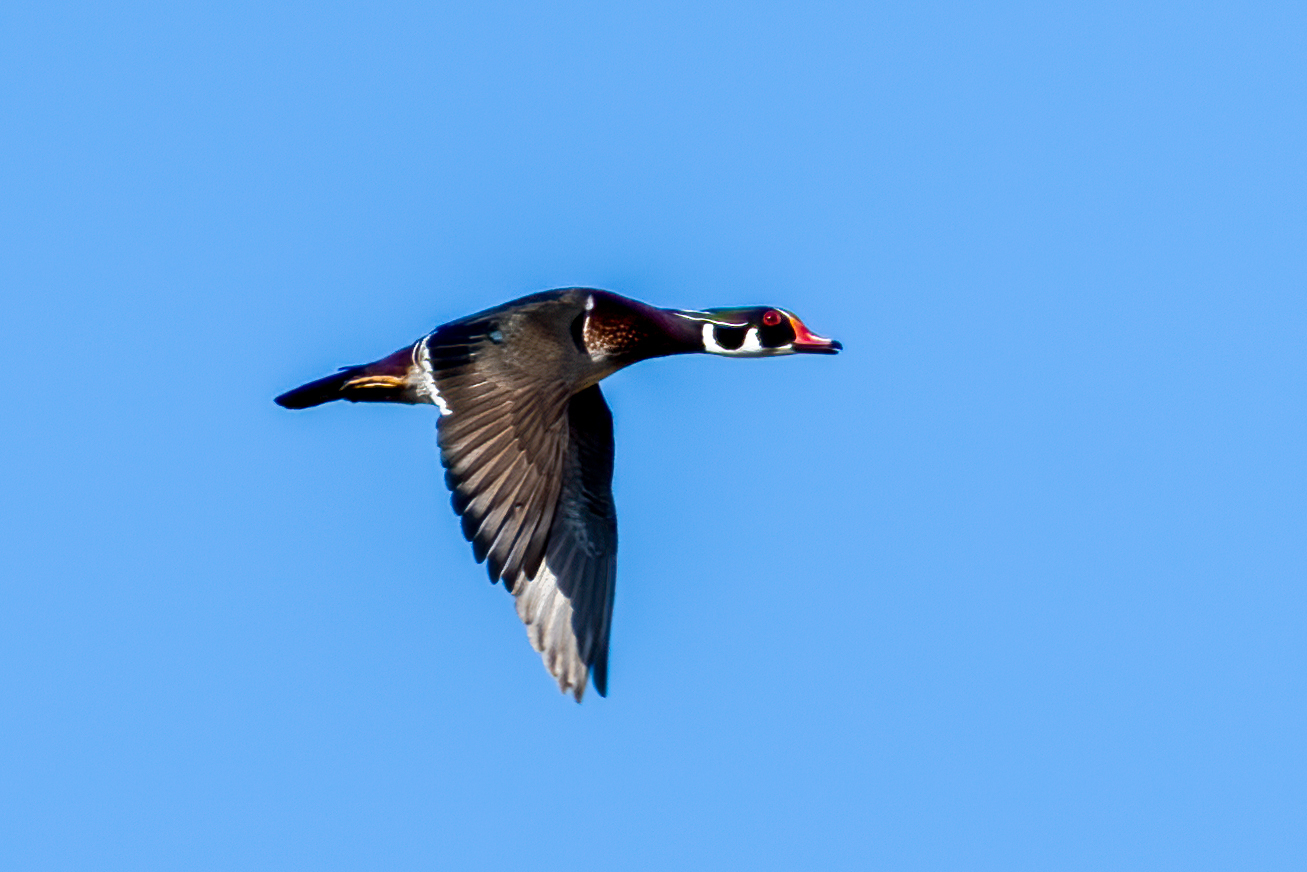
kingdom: Animalia
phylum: Chordata
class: Aves
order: Anseriformes
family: Anatidae
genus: Aix
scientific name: Aix sponsa
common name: Wood duck
